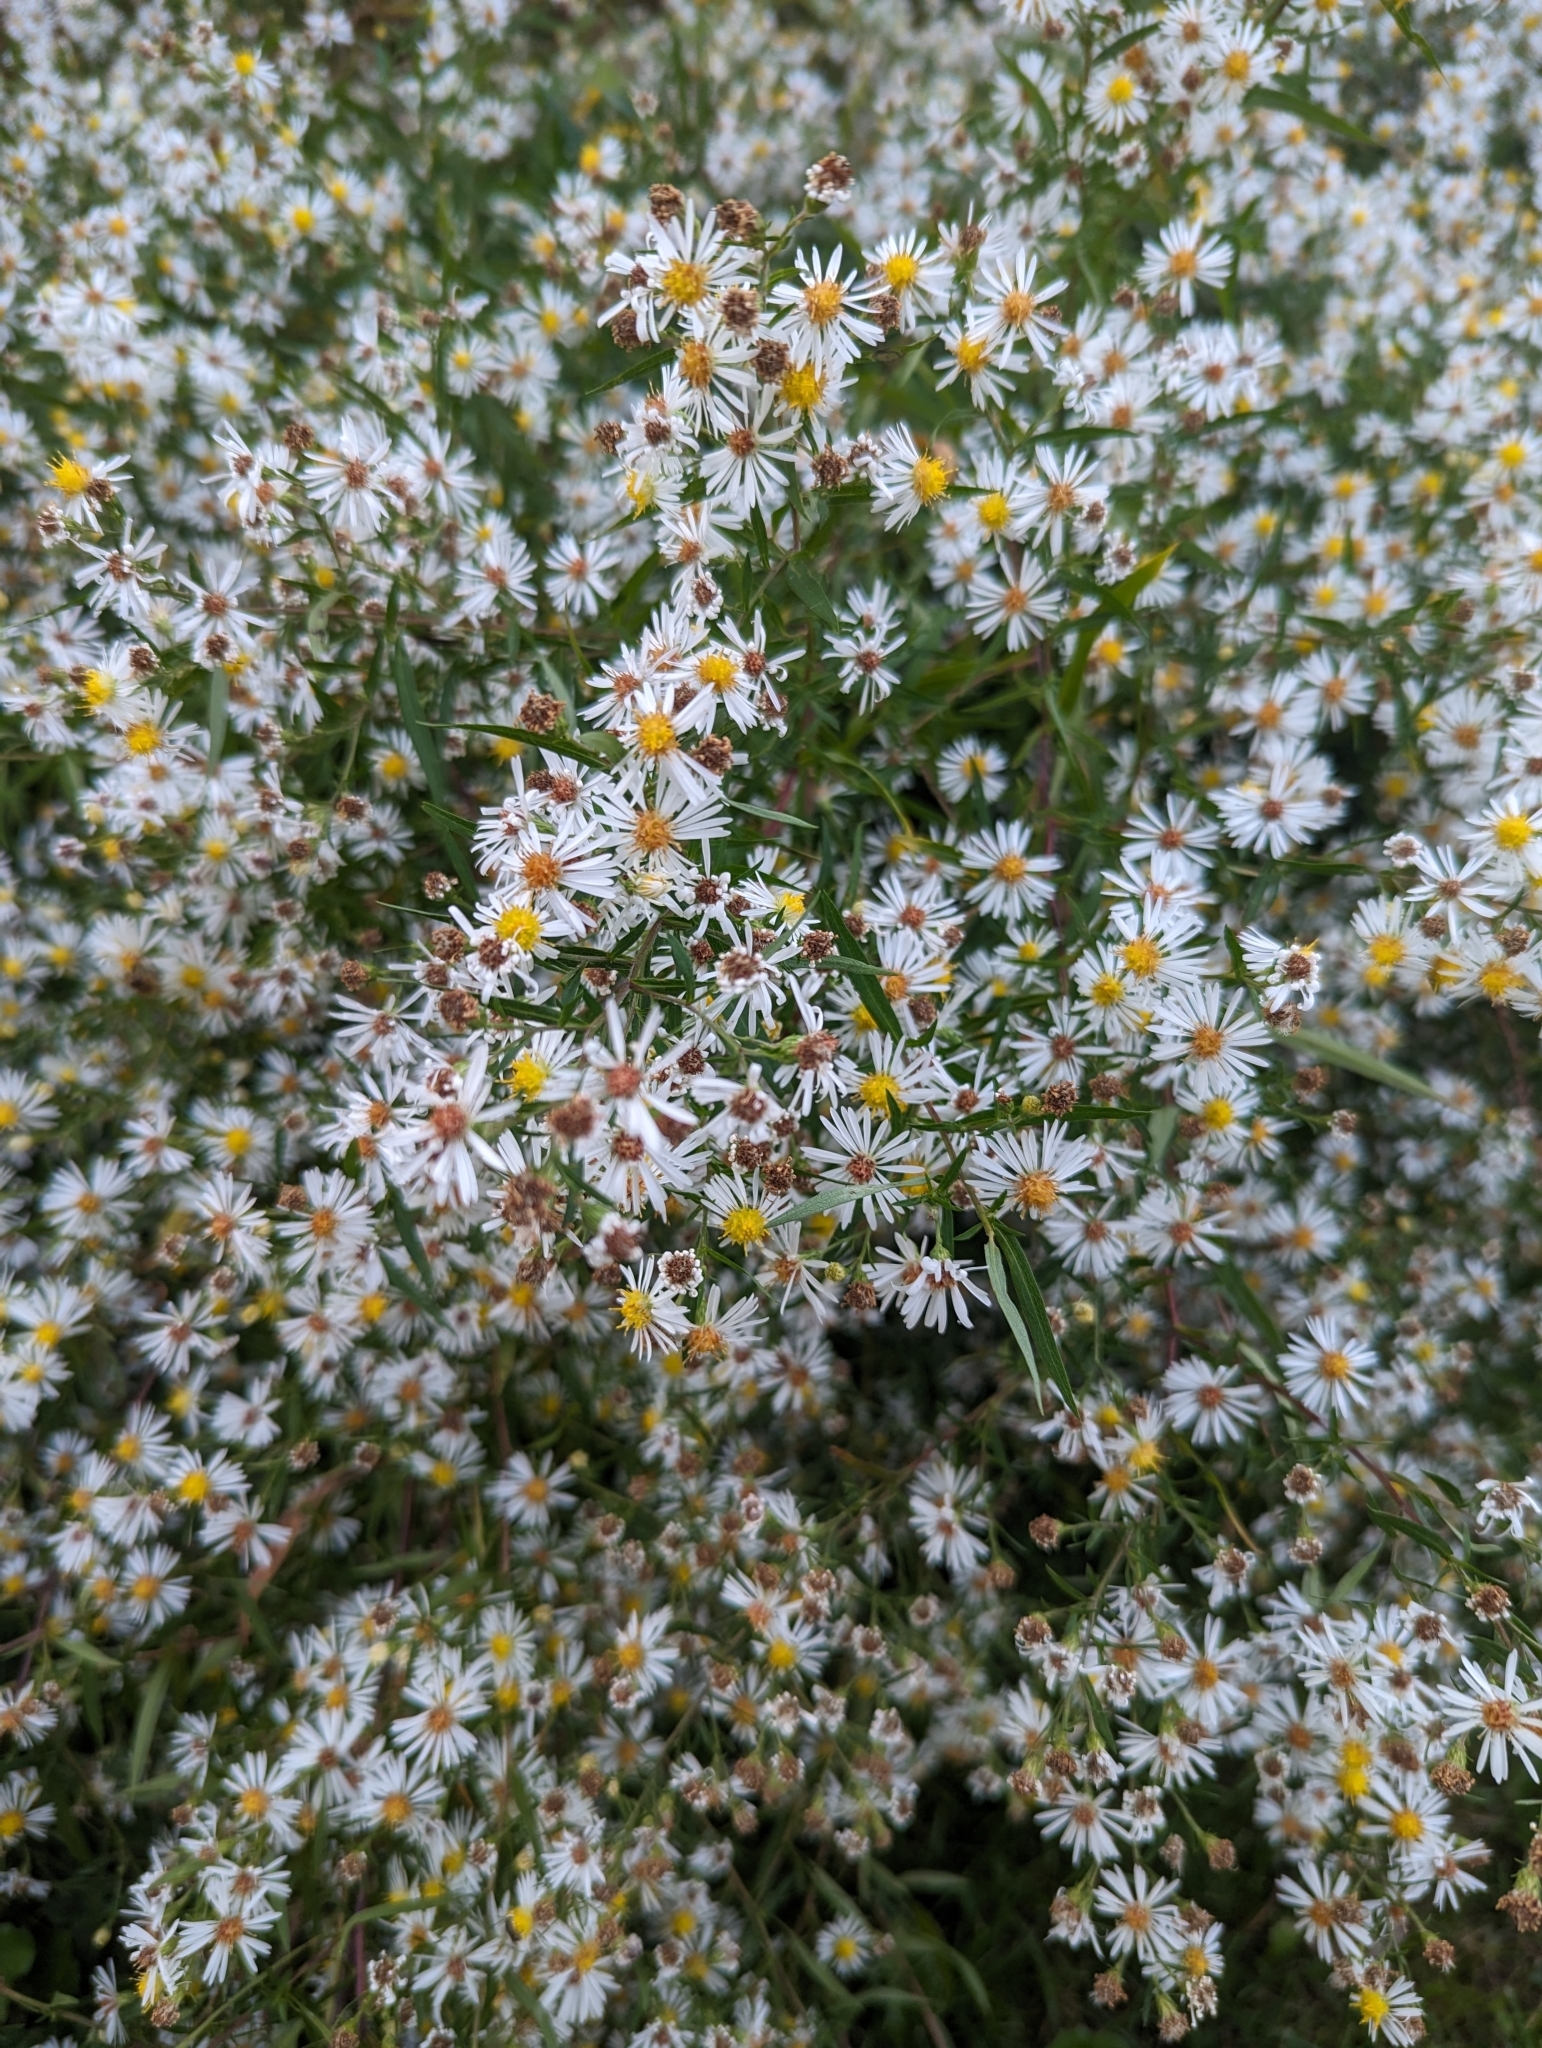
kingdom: Plantae
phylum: Tracheophyta
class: Magnoliopsida
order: Asterales
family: Asteraceae
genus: Symphyotrichum
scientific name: Symphyotrichum lanceolatum
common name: Panicled aster
